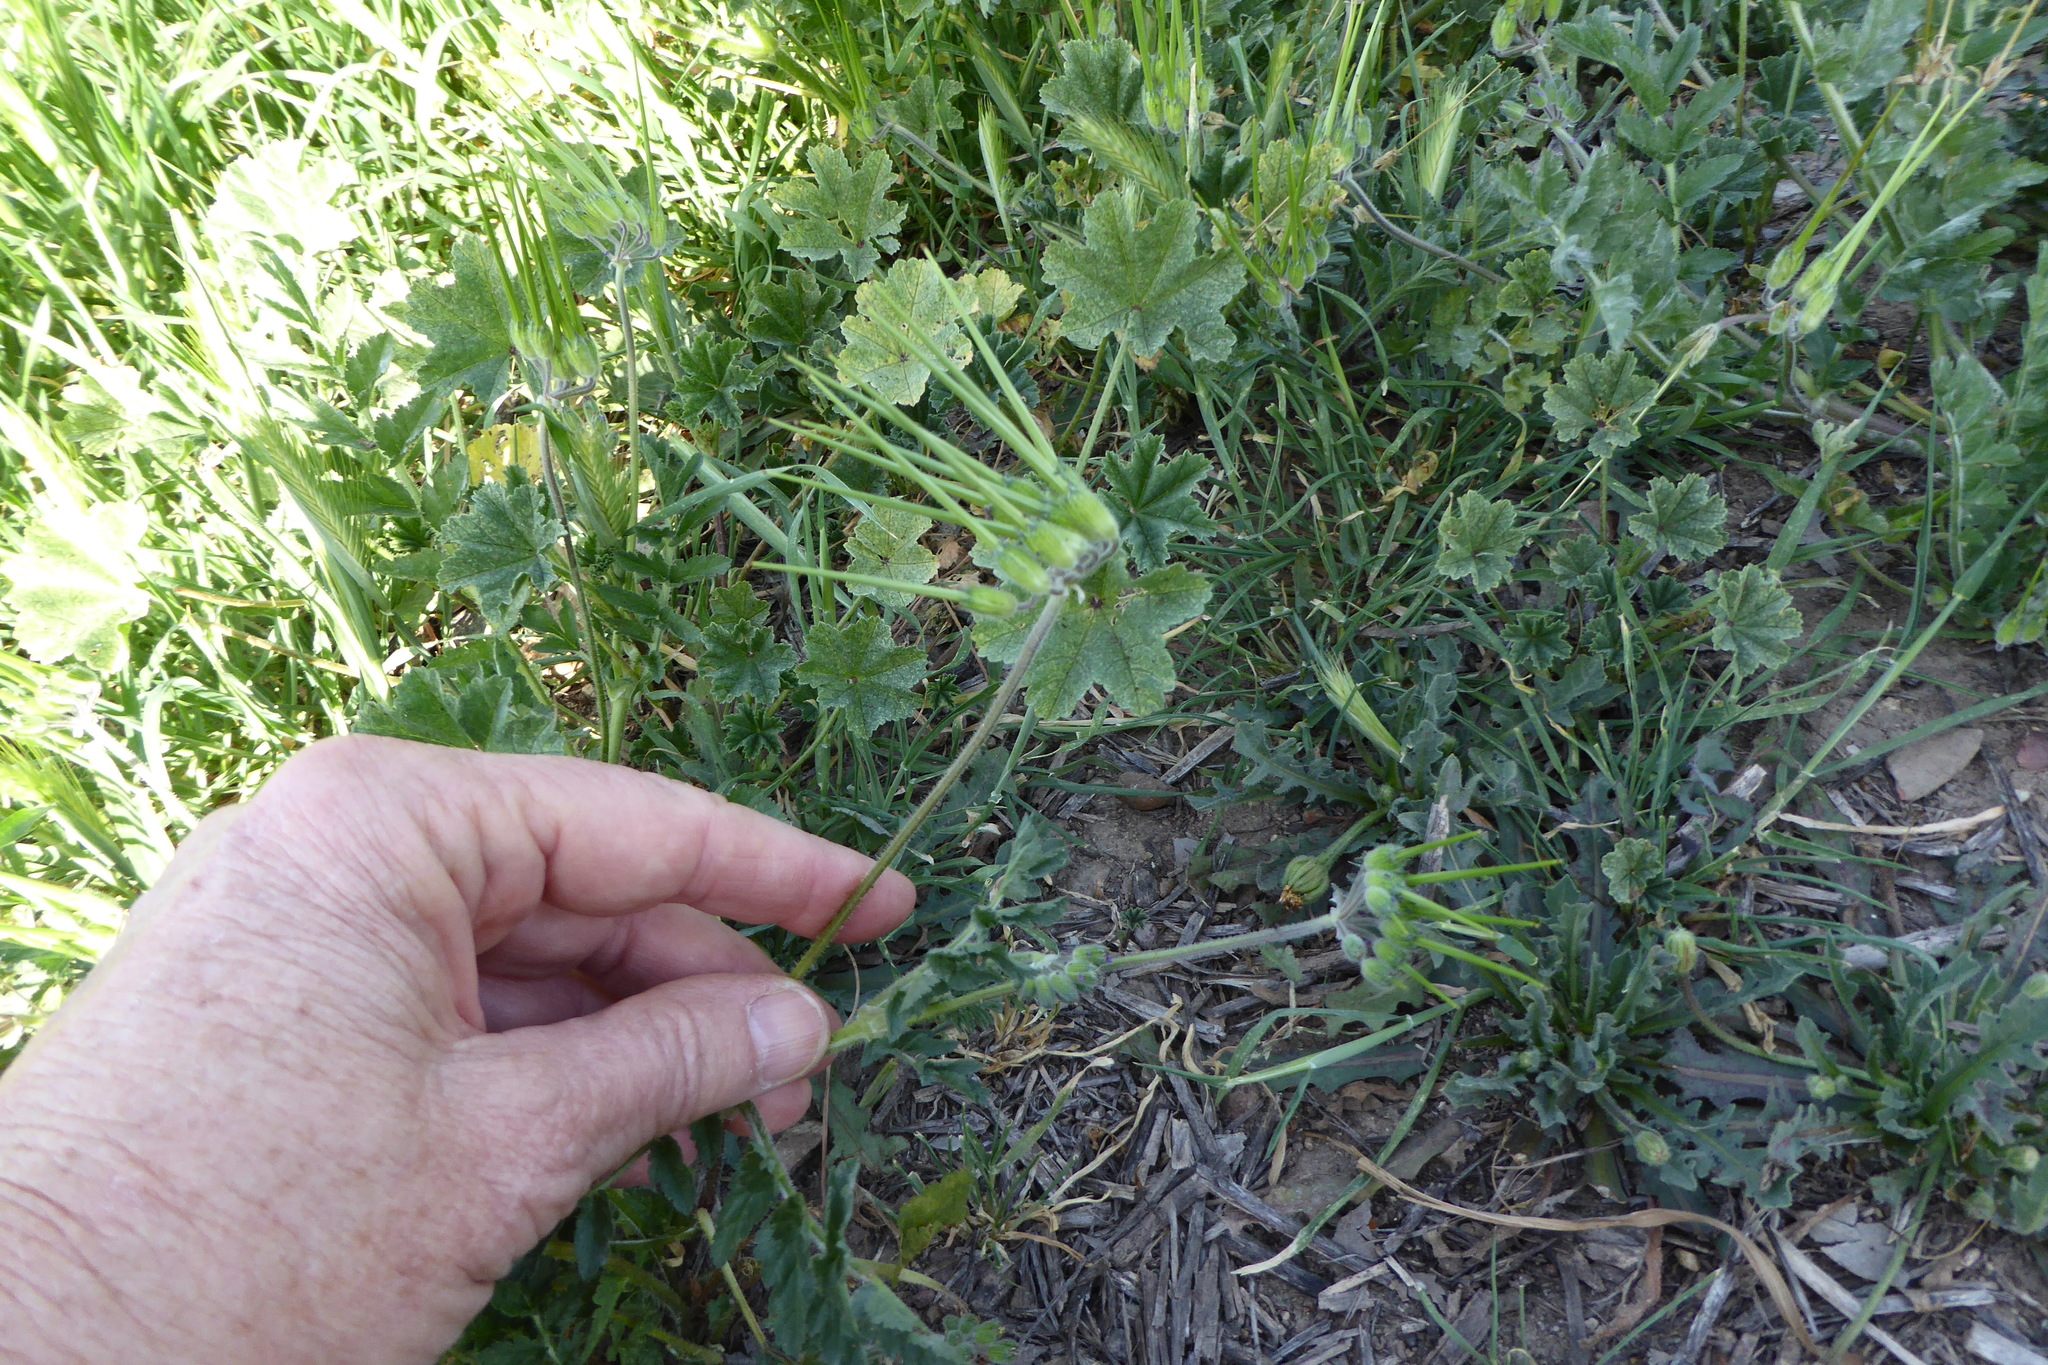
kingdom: Plantae
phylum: Tracheophyta
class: Magnoliopsida
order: Geraniales
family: Geraniaceae
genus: Erodium
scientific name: Erodium moschatum
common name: Musk stork's-bill
